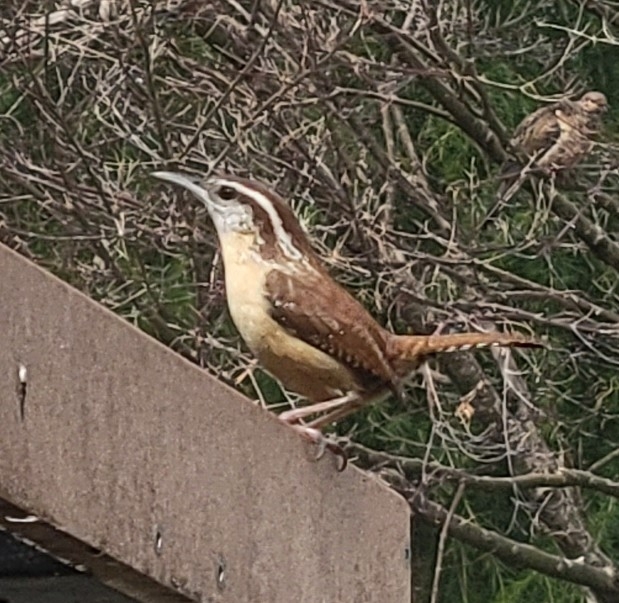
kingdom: Animalia
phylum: Chordata
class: Aves
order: Passeriformes
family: Troglodytidae
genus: Thryothorus
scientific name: Thryothorus ludovicianus
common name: Carolina wren
